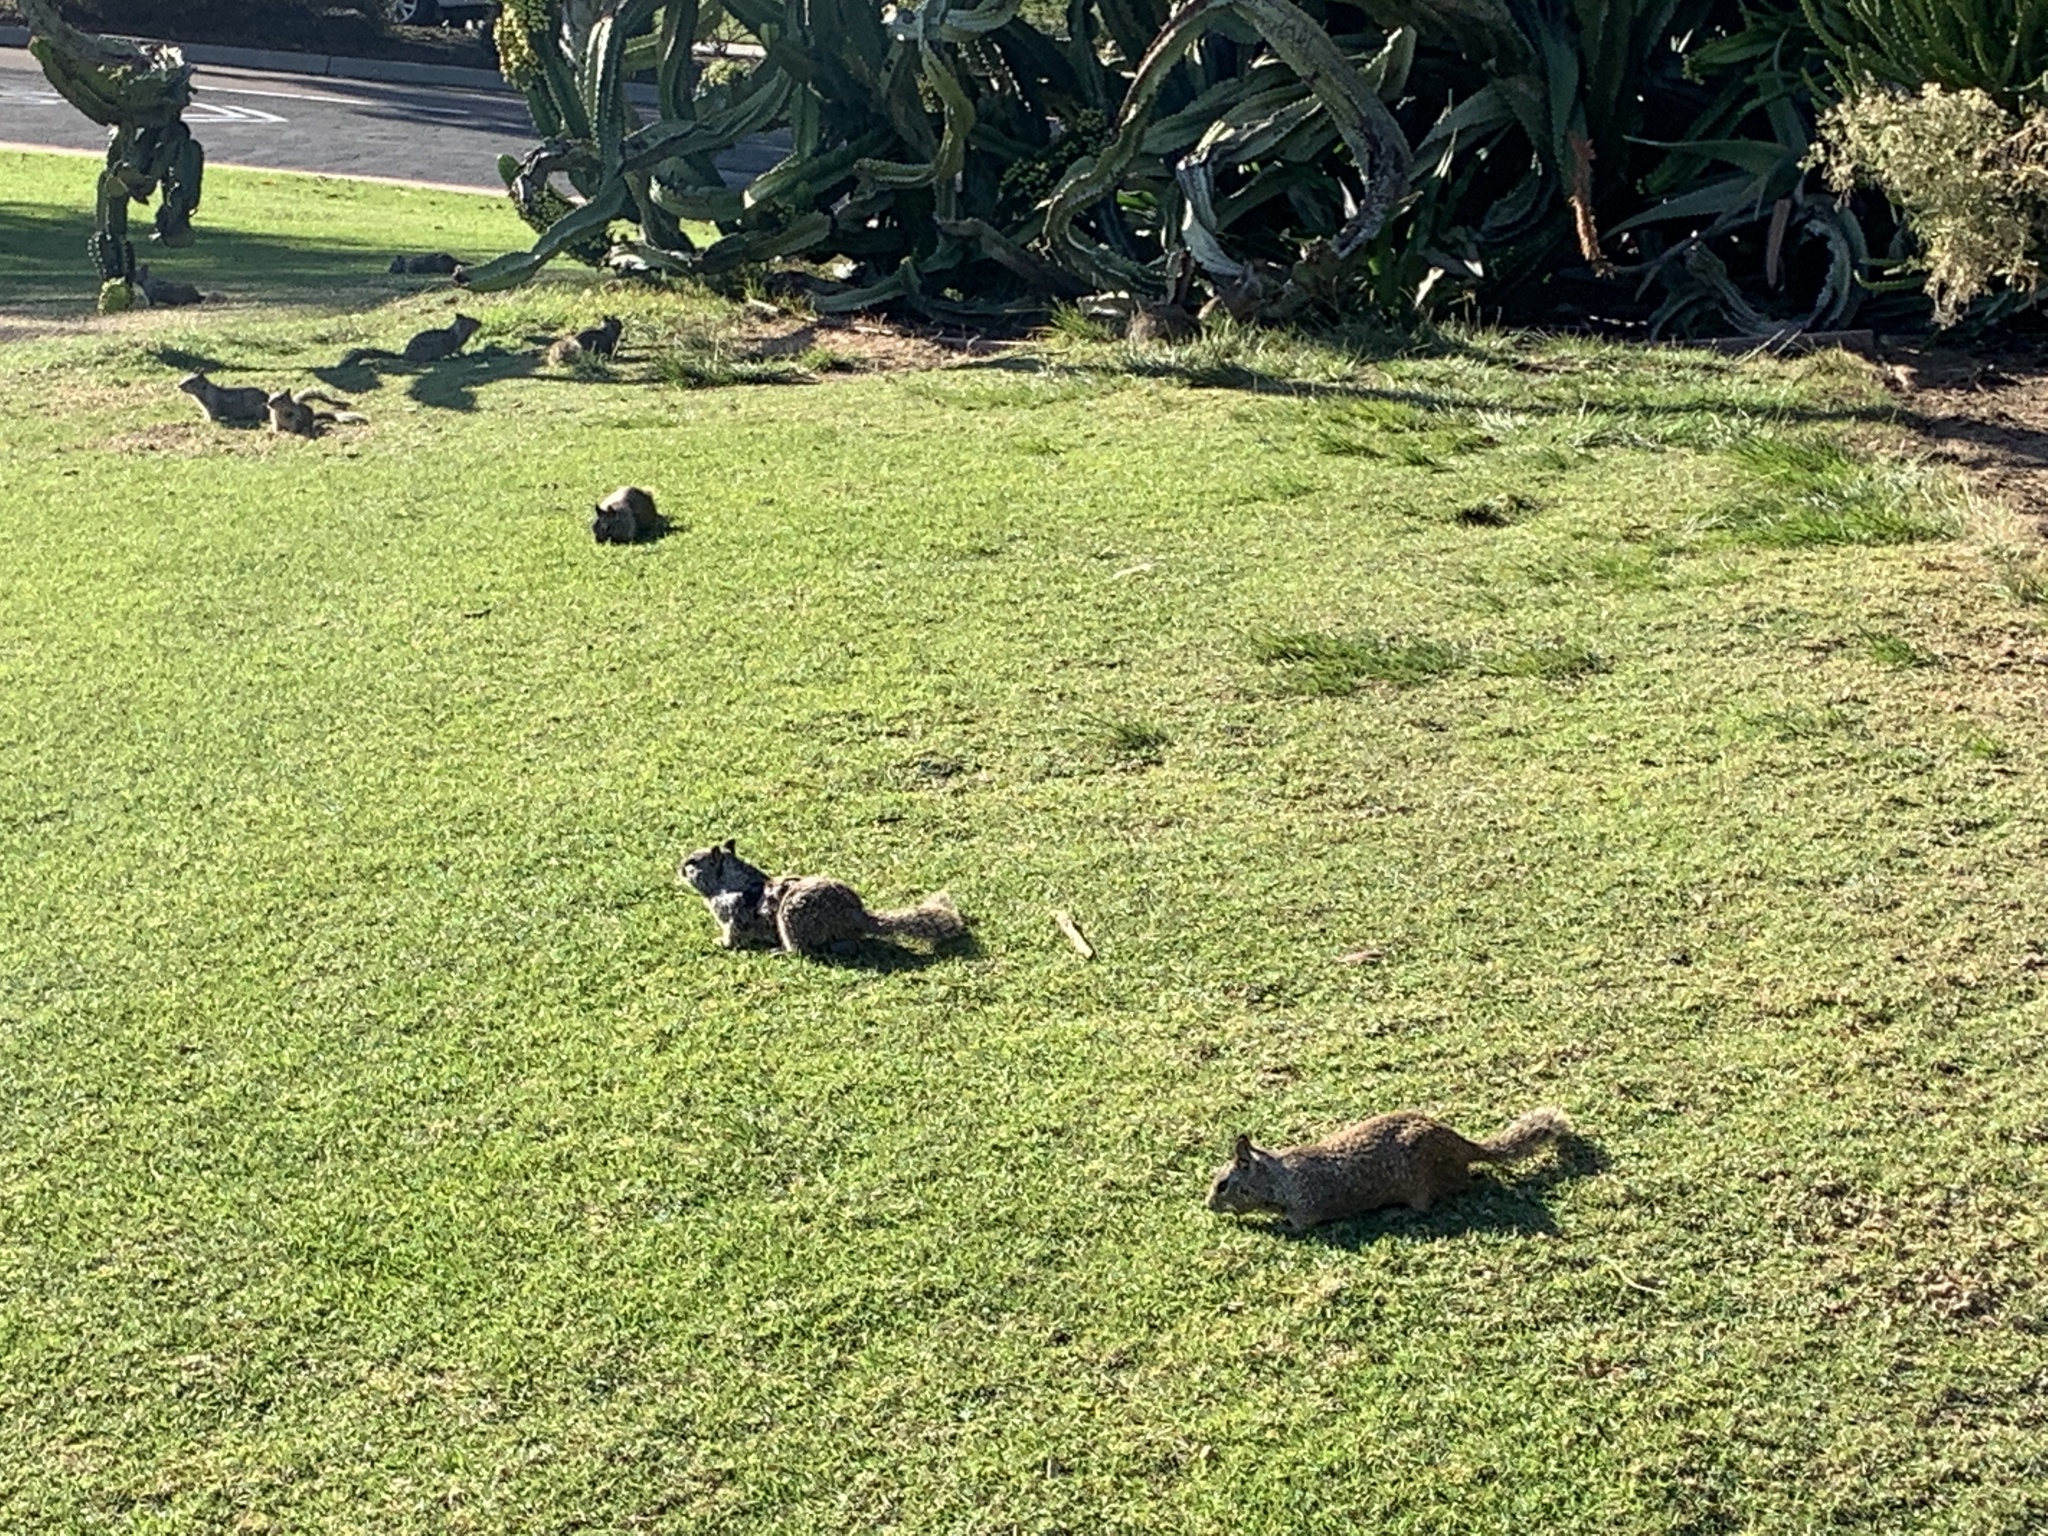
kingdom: Animalia
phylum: Chordata
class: Mammalia
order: Rodentia
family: Sciuridae
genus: Otospermophilus
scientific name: Otospermophilus beecheyi
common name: California ground squirrel
